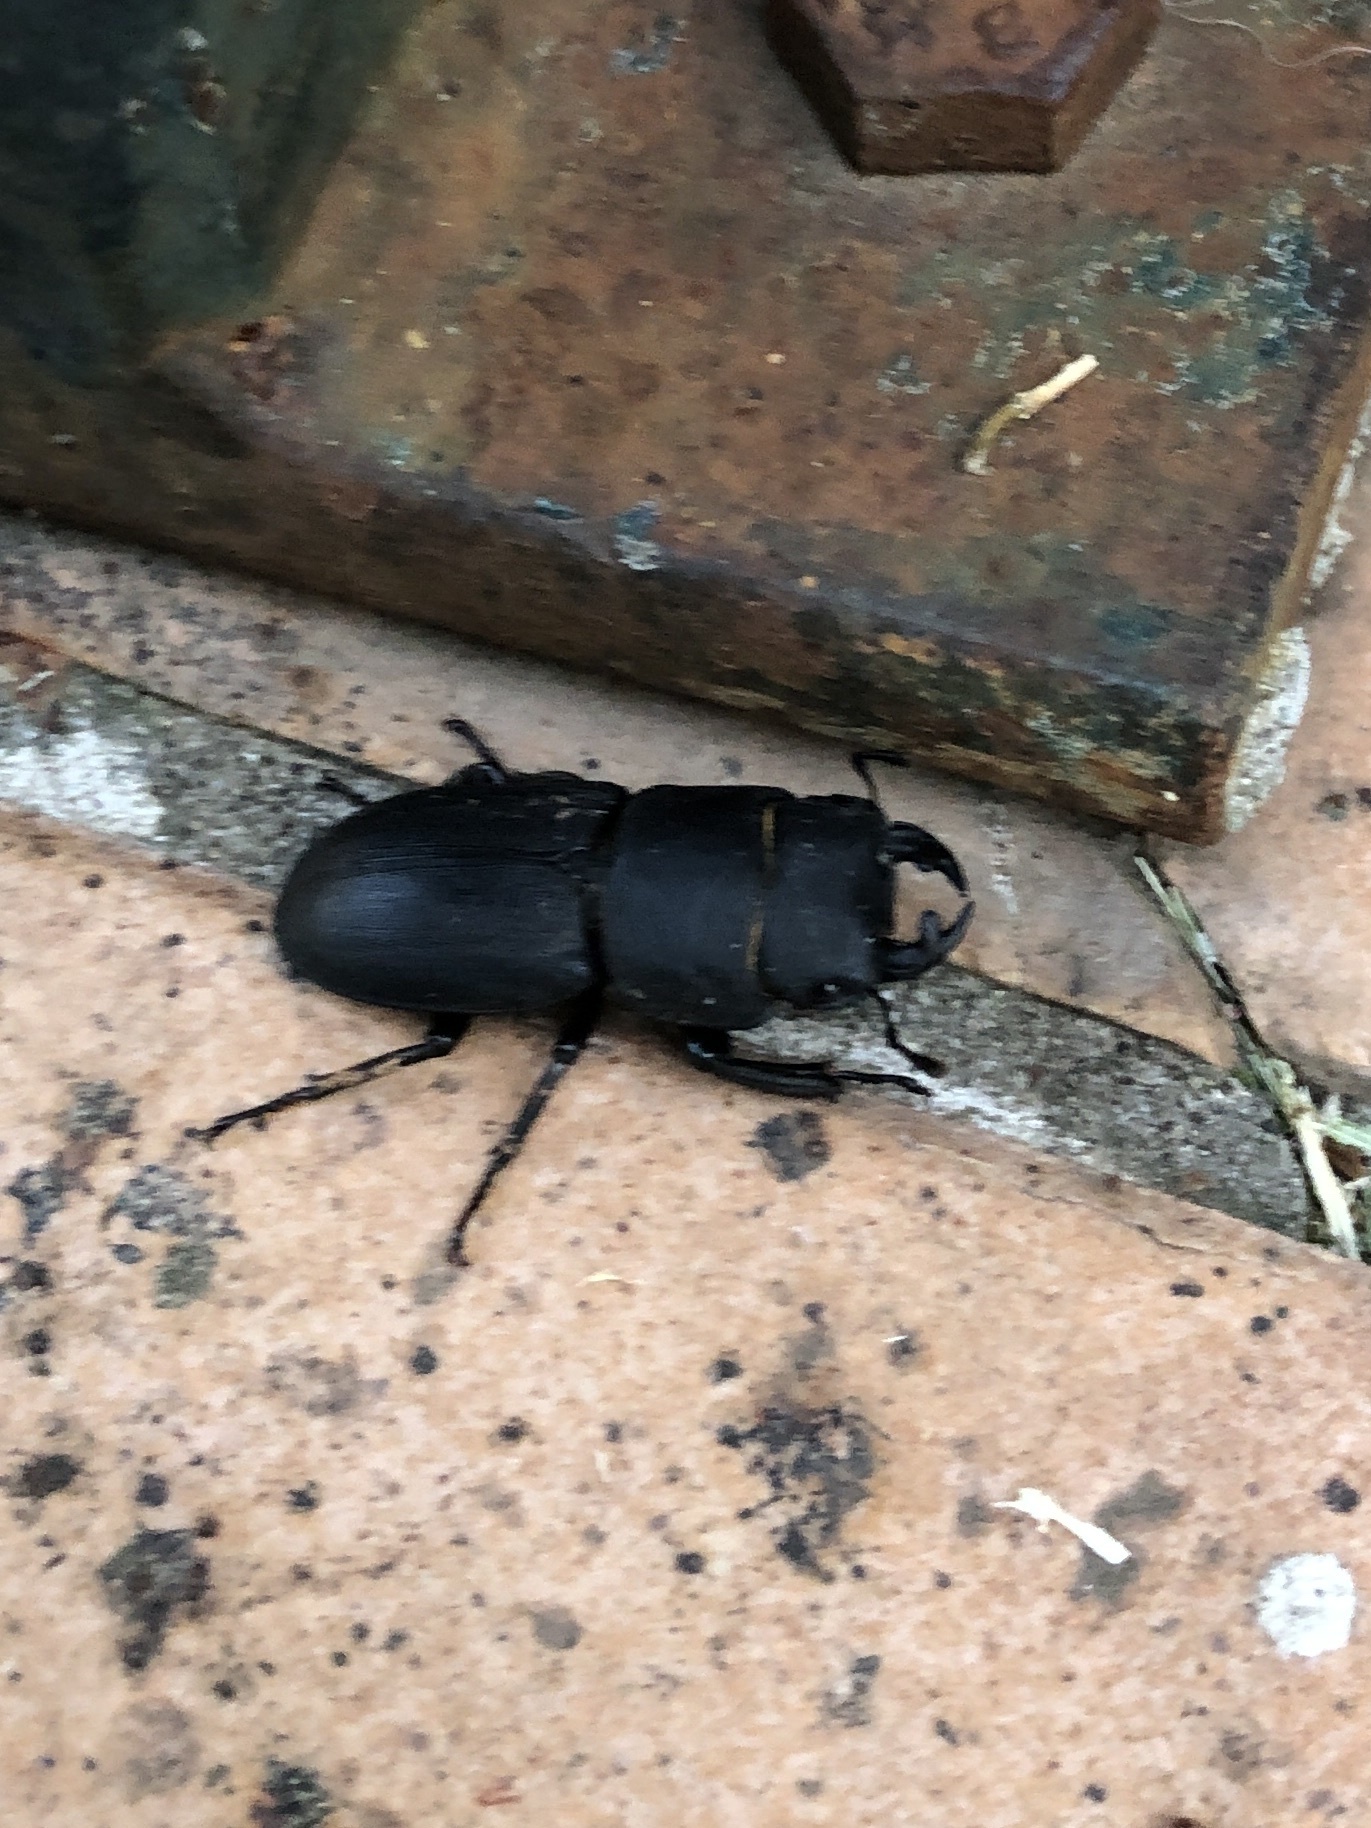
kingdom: Animalia
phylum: Arthropoda
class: Insecta
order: Coleoptera
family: Lucanidae
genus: Dorcus
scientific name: Dorcus parallelipipedus
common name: Lesser stag beetle
